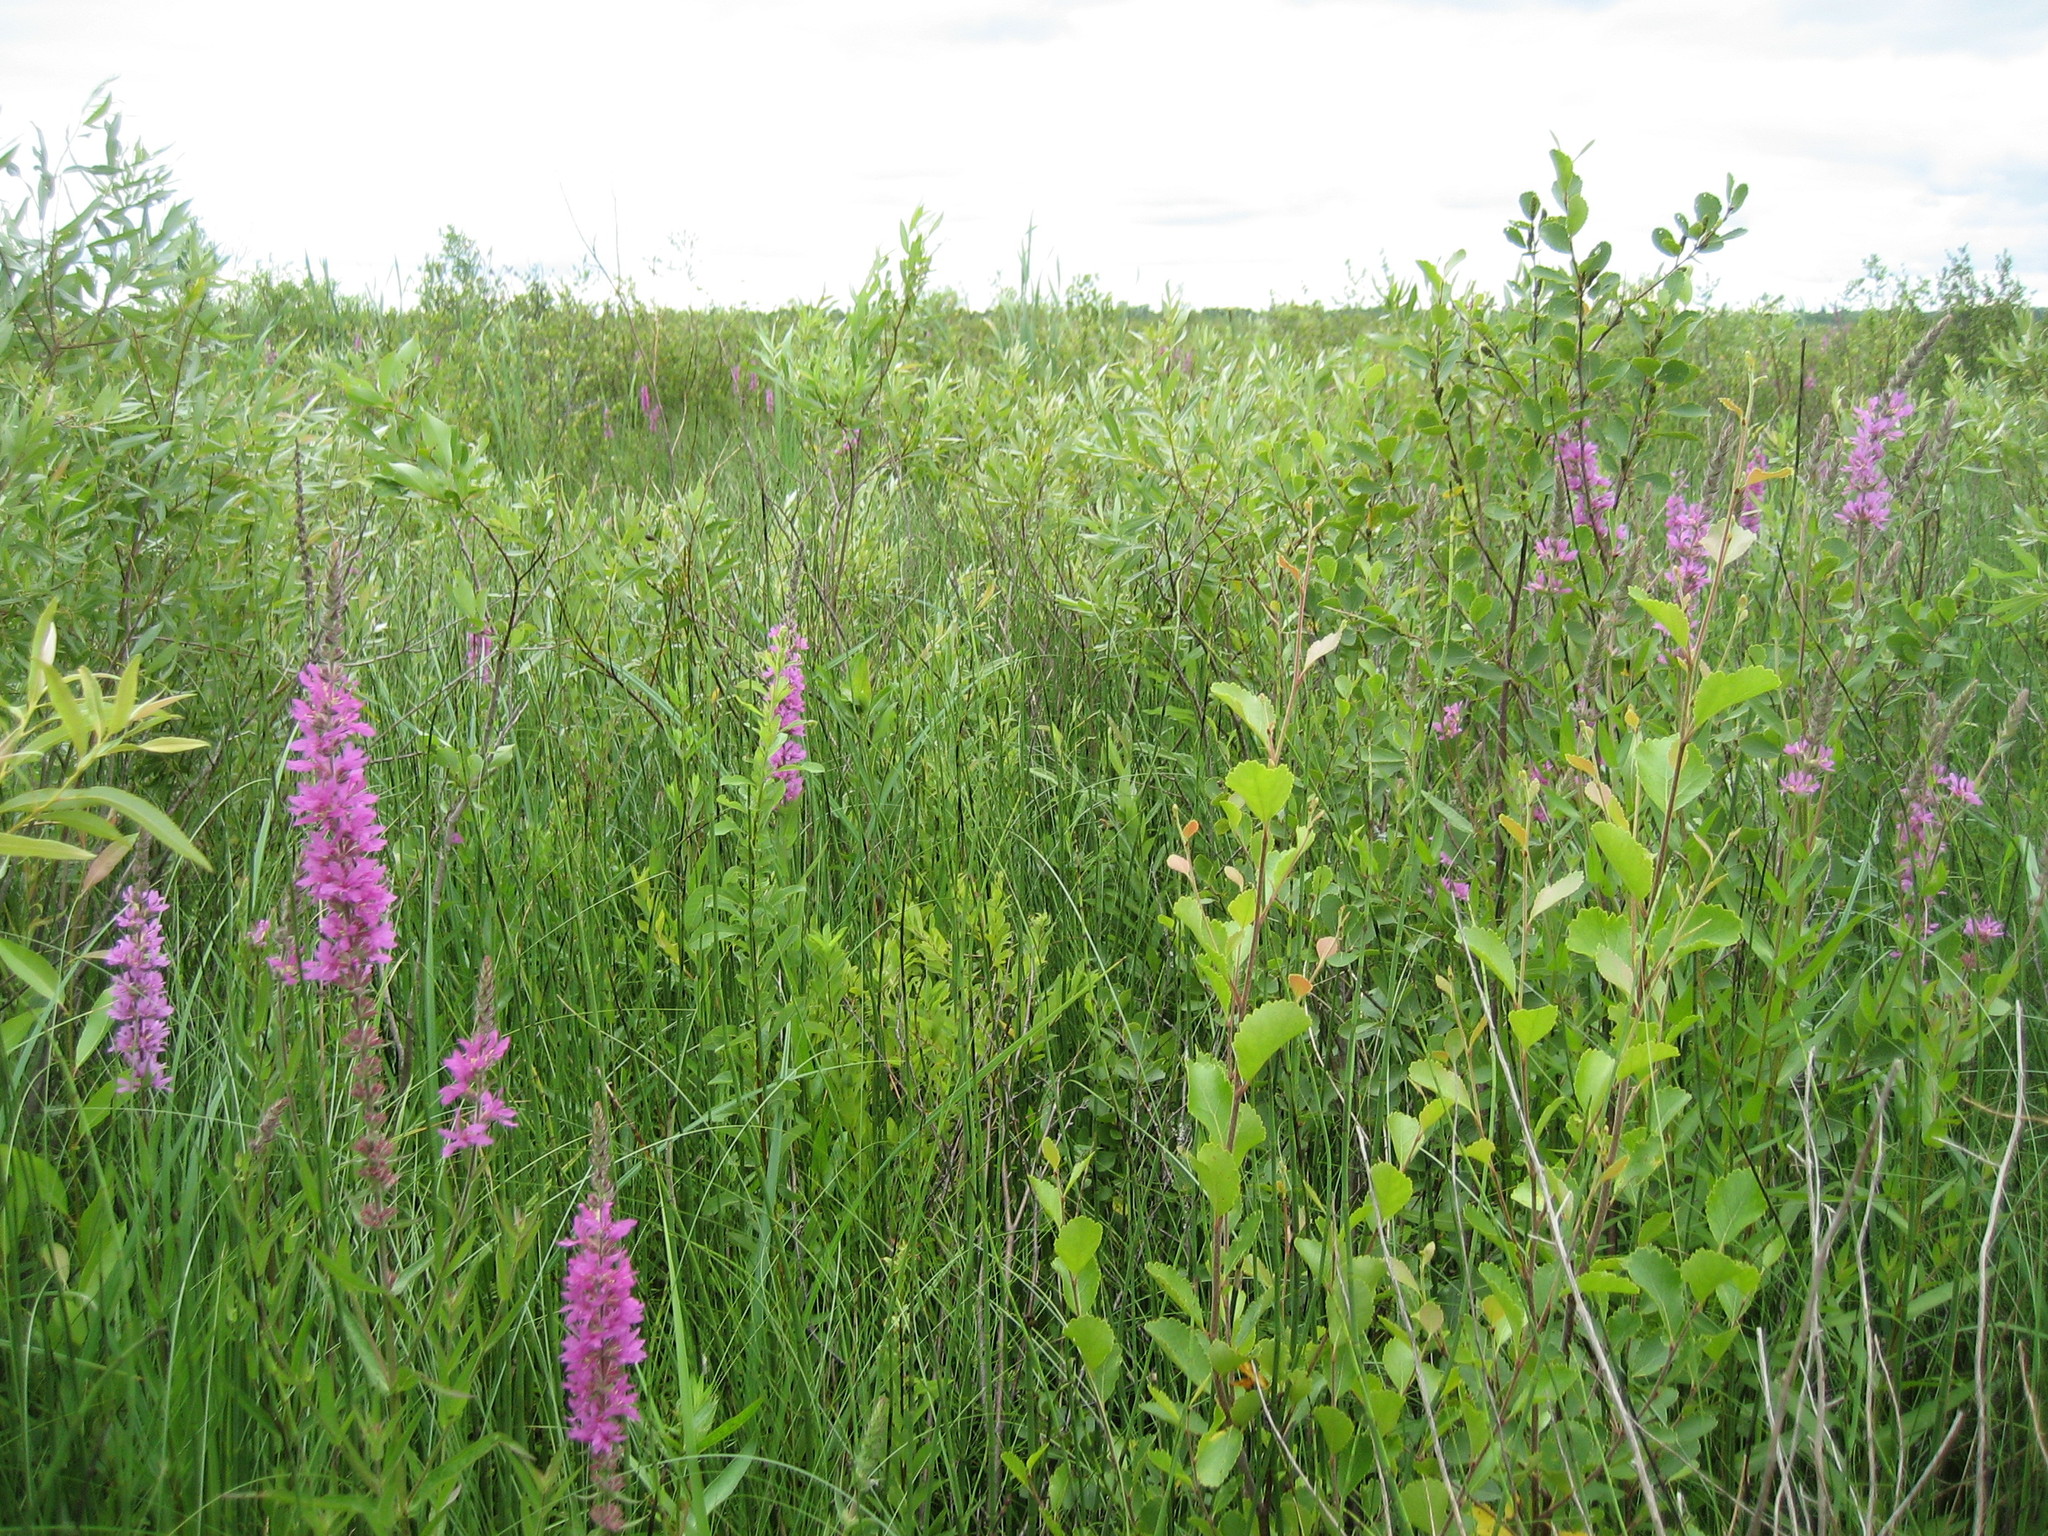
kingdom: Plantae
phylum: Tracheophyta
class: Magnoliopsida
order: Myrtales
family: Lythraceae
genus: Lythrum
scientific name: Lythrum salicaria
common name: Purple loosestrife
